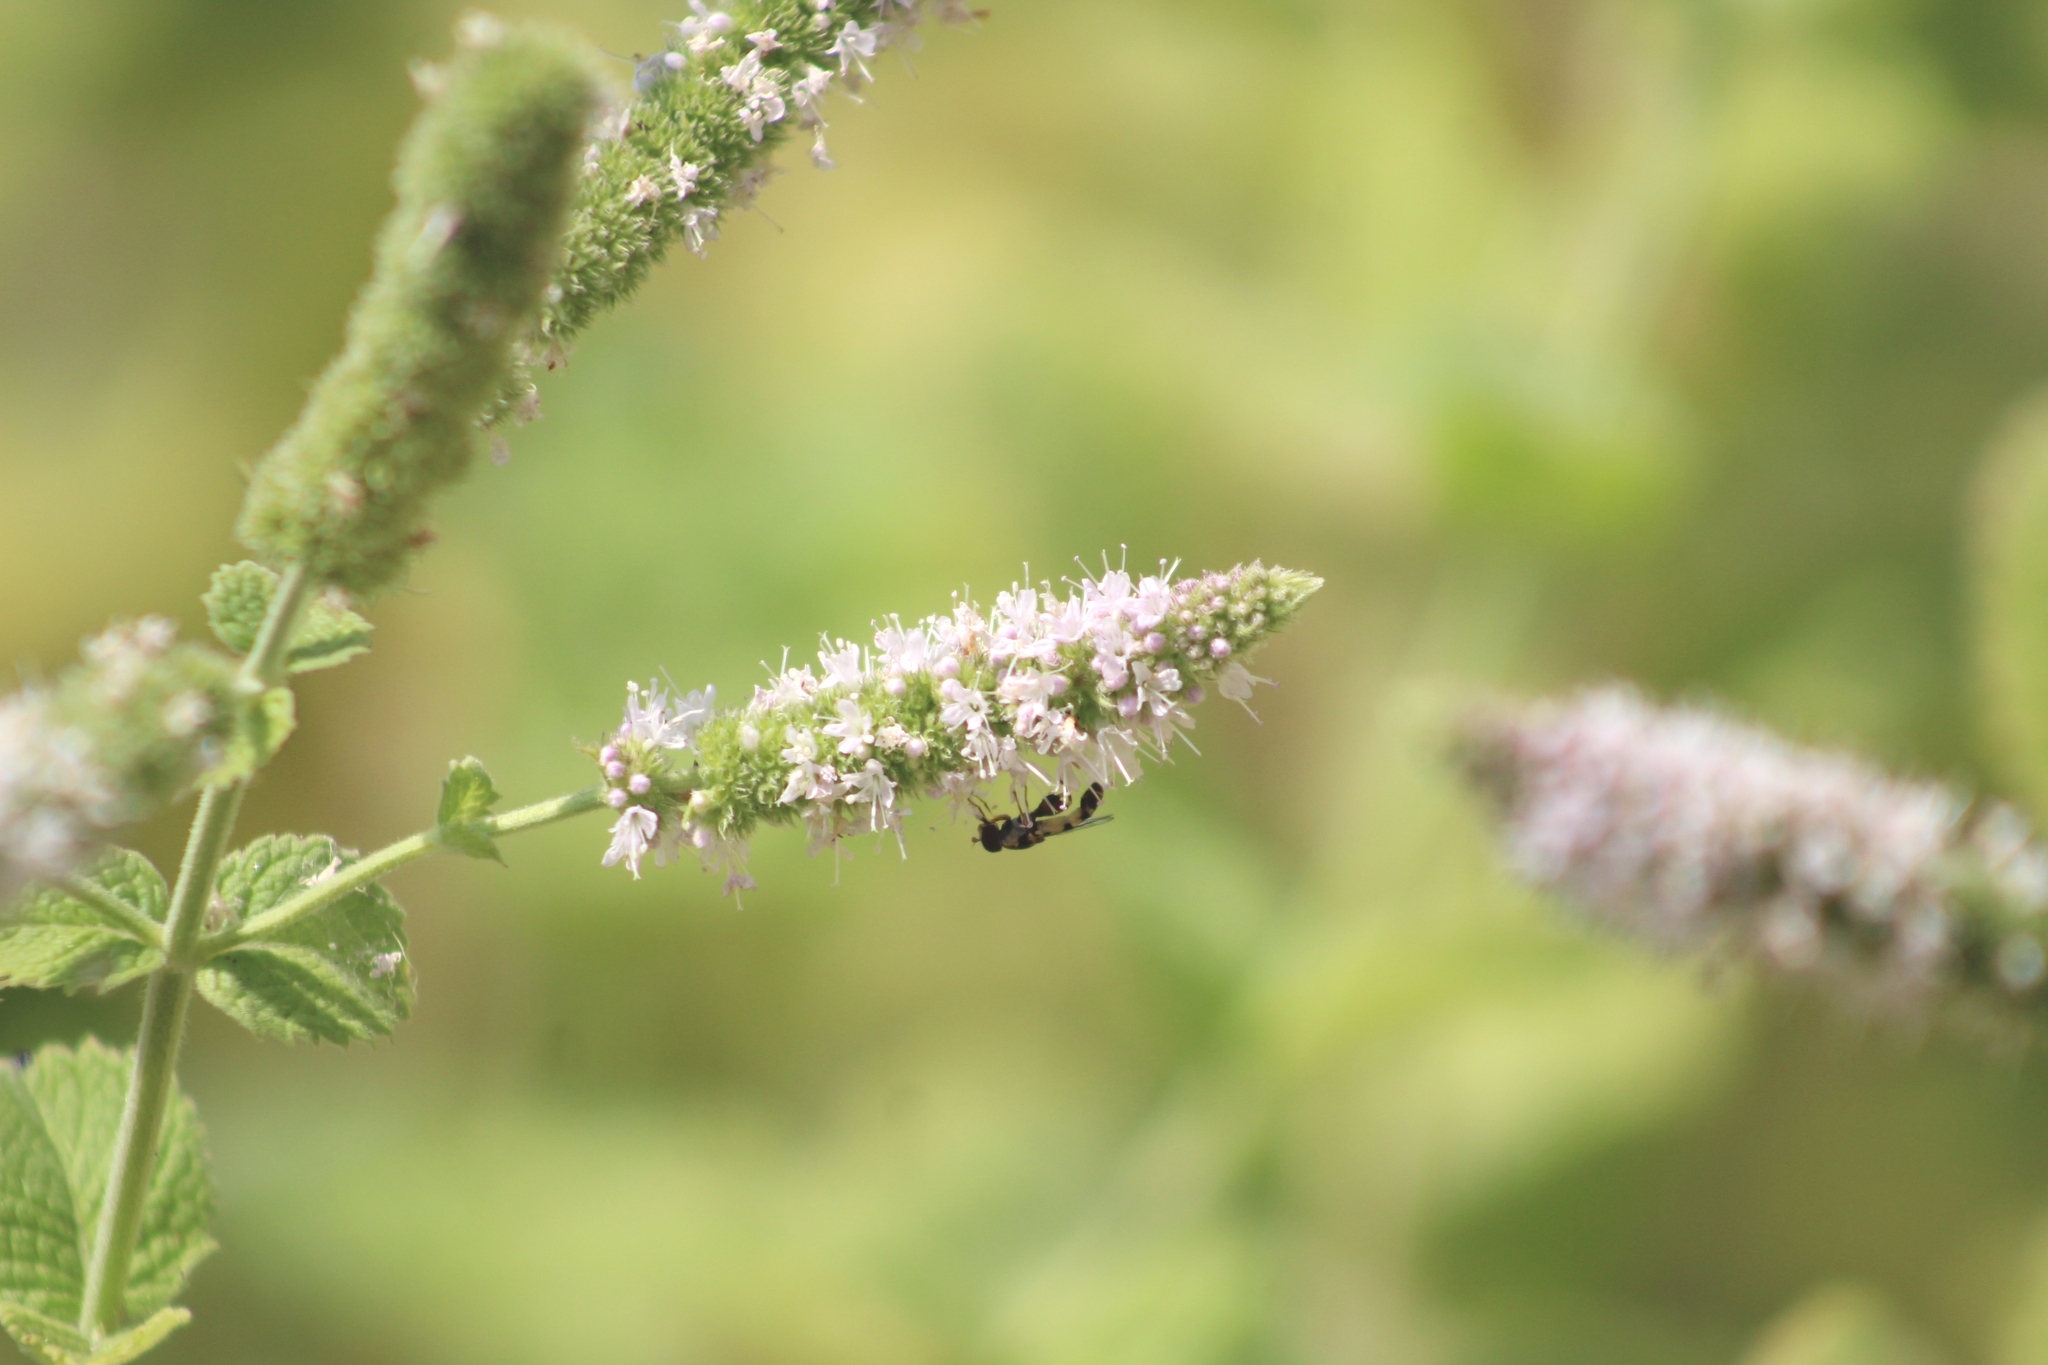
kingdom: Animalia
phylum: Arthropoda
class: Insecta
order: Diptera
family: Syrphidae
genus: Syritta
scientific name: Syritta pipiens
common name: Hover fly
